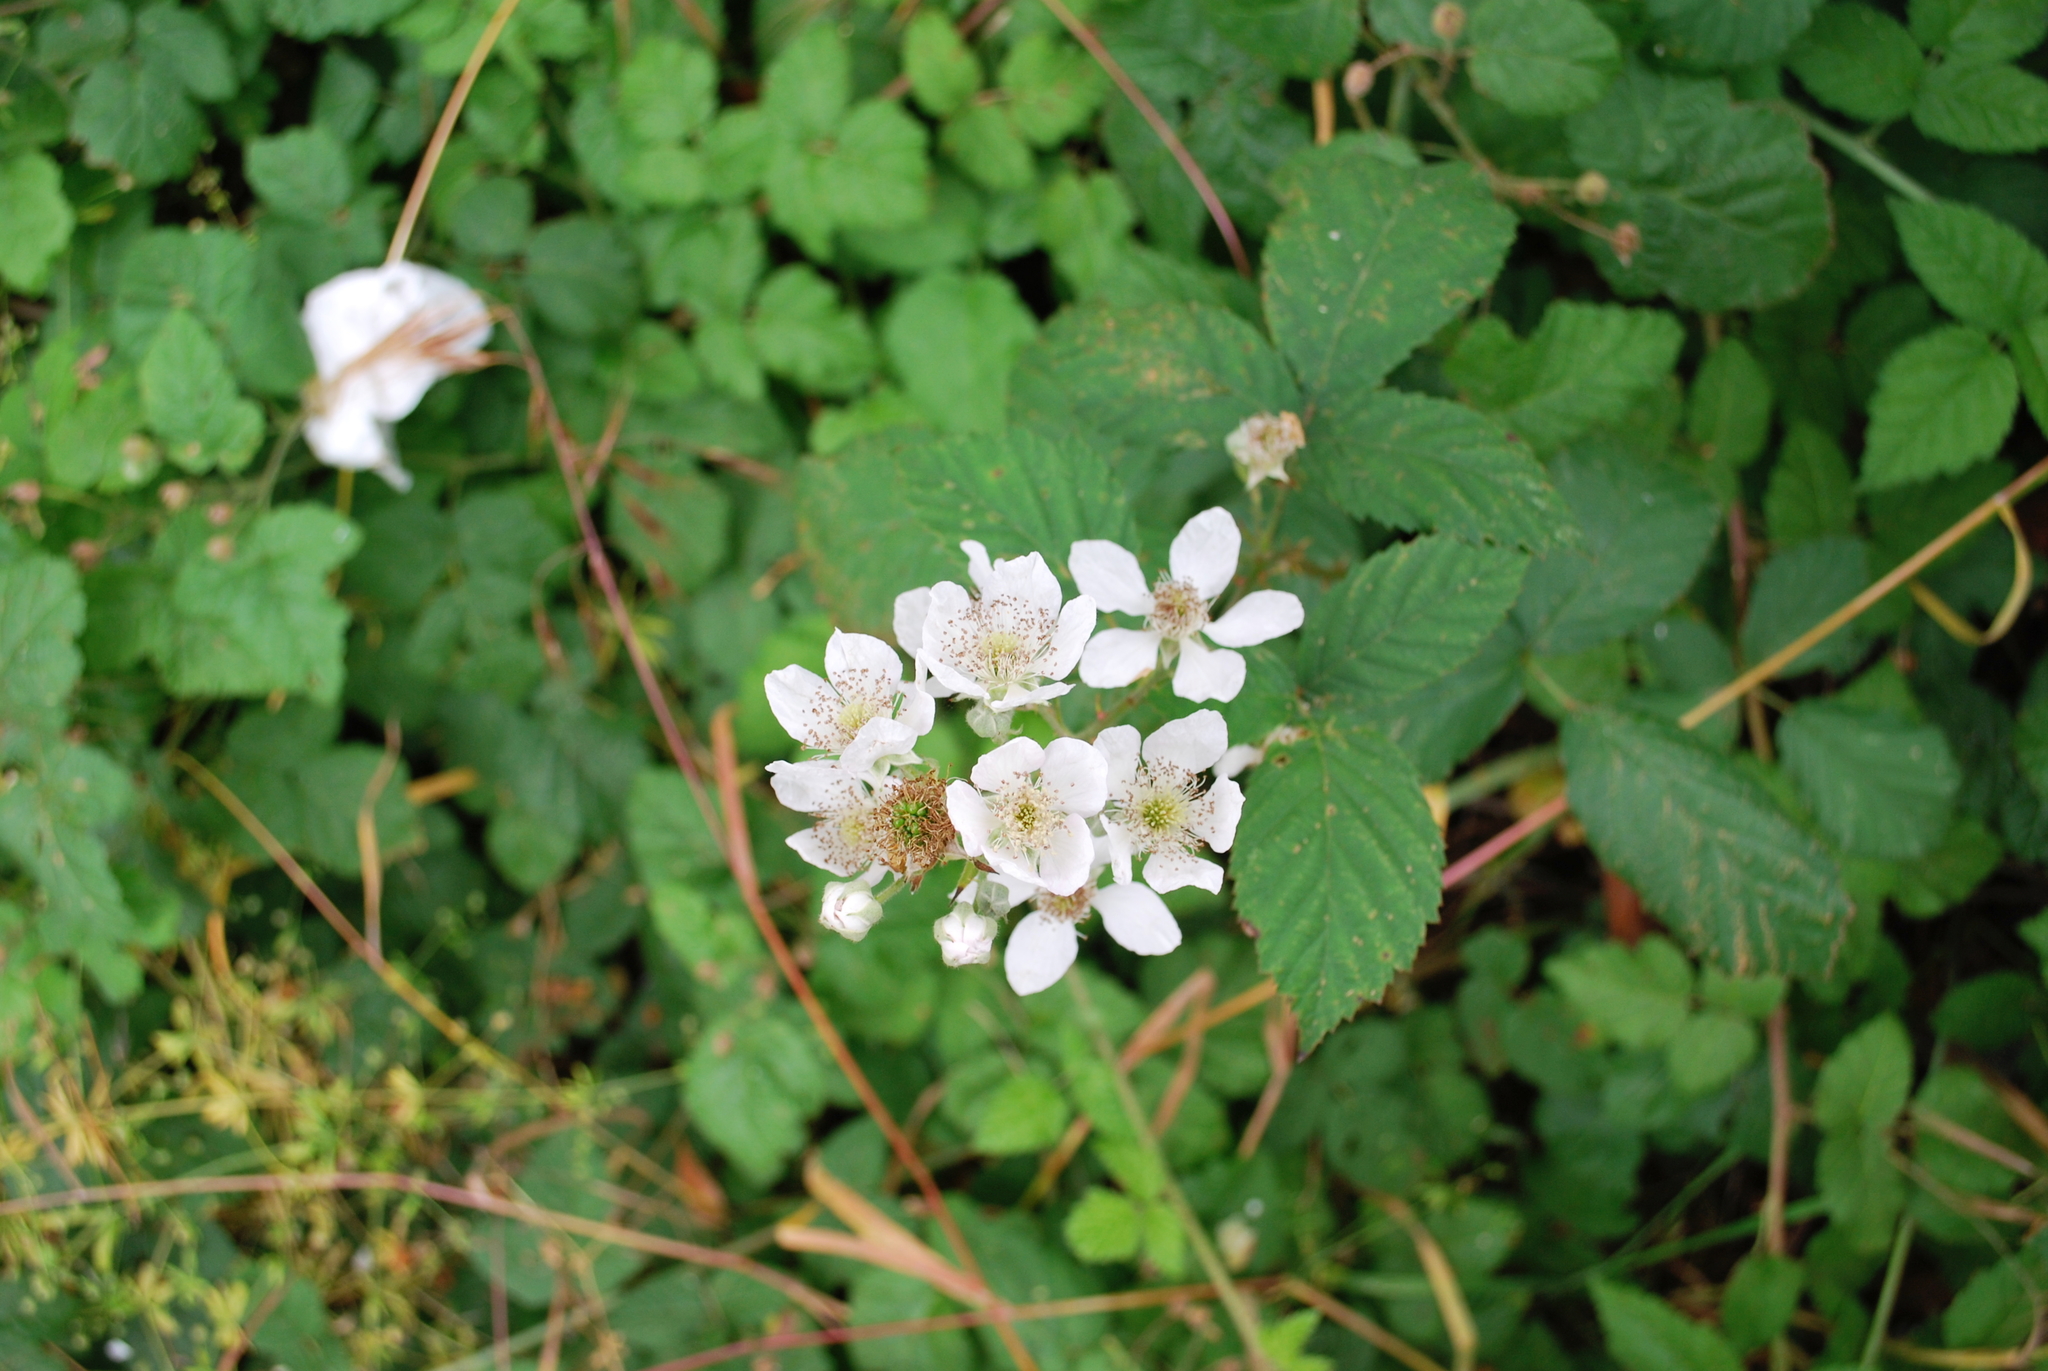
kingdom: Plantae
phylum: Tracheophyta
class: Magnoliopsida
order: Rosales
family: Rosaceae
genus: Rubus
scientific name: Rubus armeniacus
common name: Himalayan blackberry
